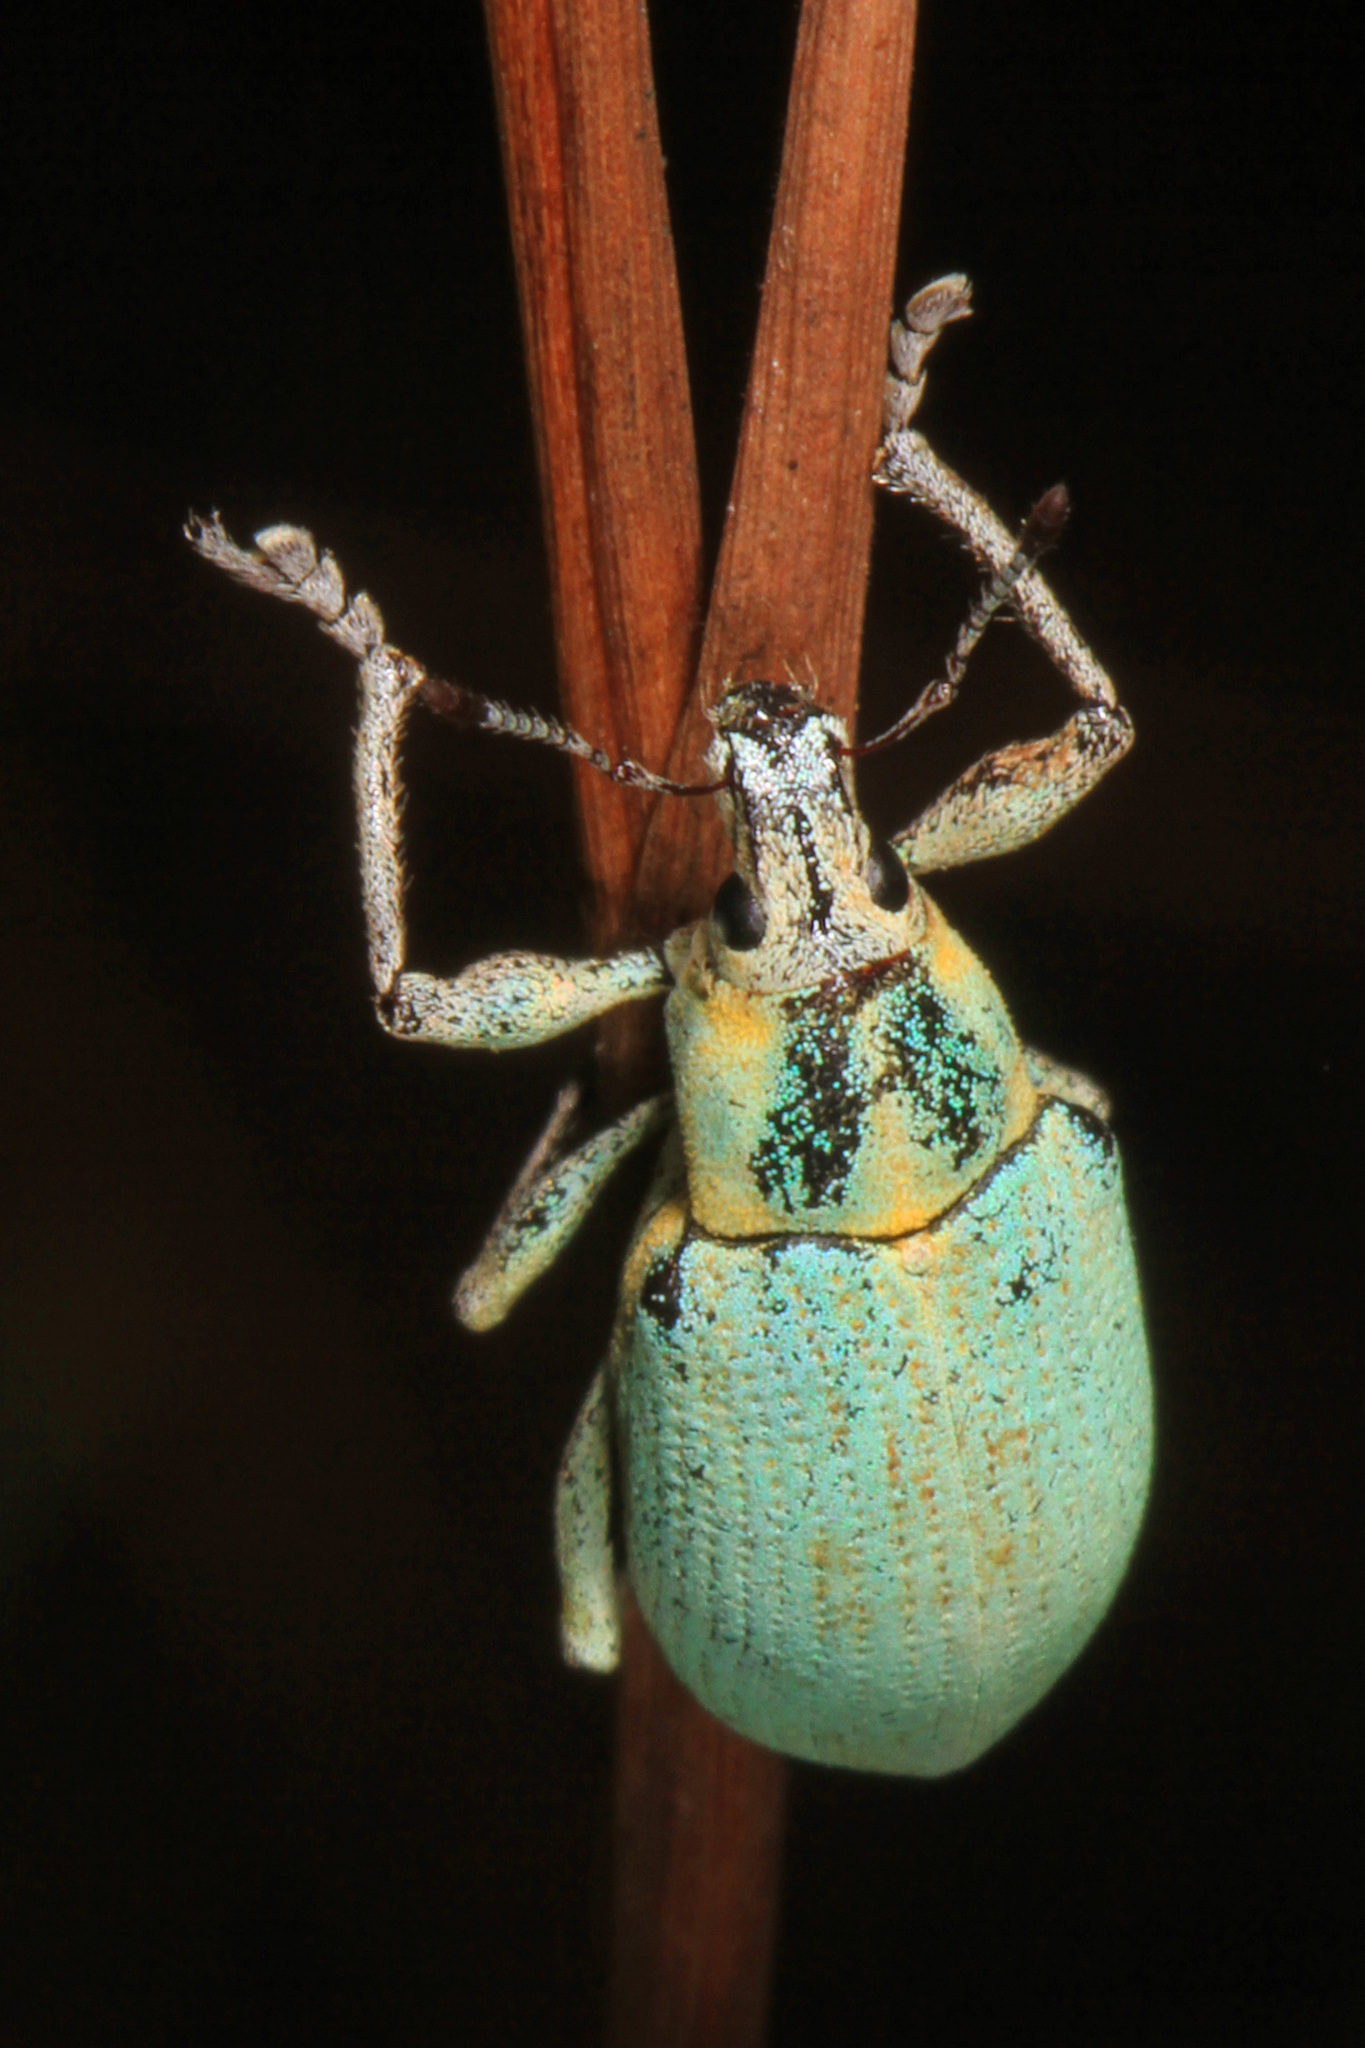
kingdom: Animalia
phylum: Arthropoda
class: Insecta
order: Coleoptera
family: Curculionidae
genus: Pachnaeus
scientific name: Pachnaeus litus
